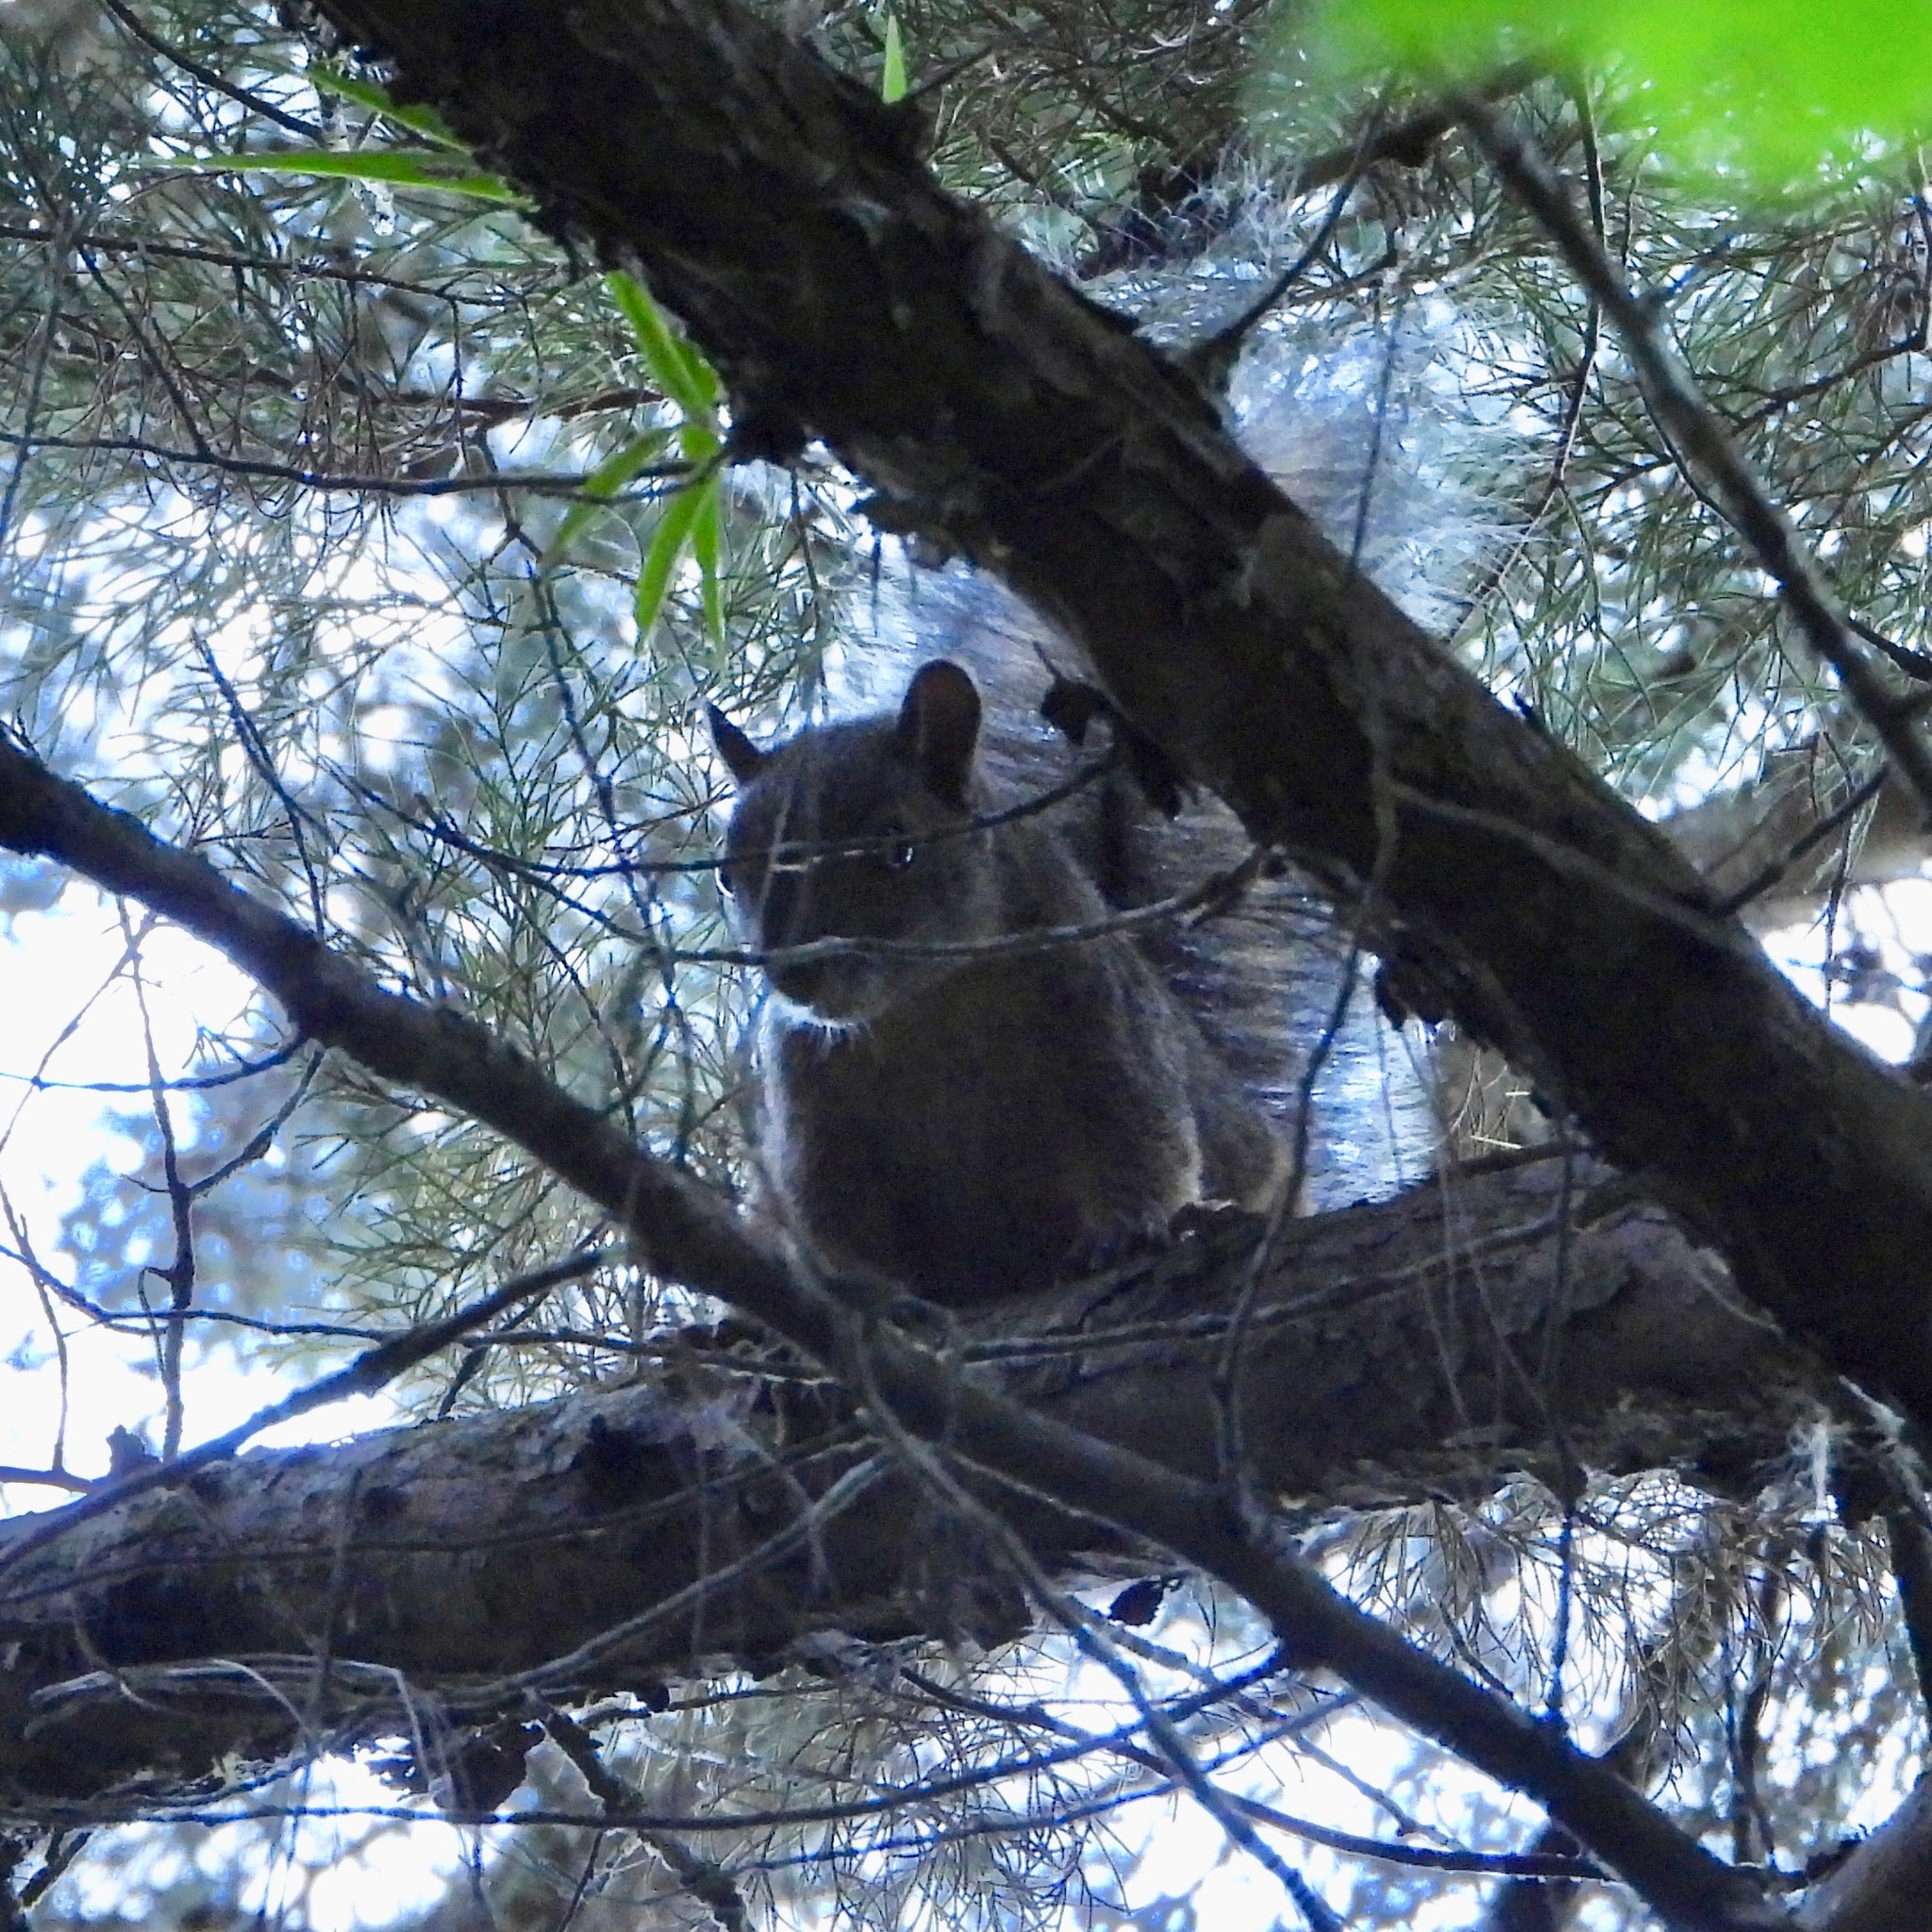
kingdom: Animalia
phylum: Chordata
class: Mammalia
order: Rodentia
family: Sciuridae
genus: Sciurus
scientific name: Sciurus deppei
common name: Deppe's squirrel
